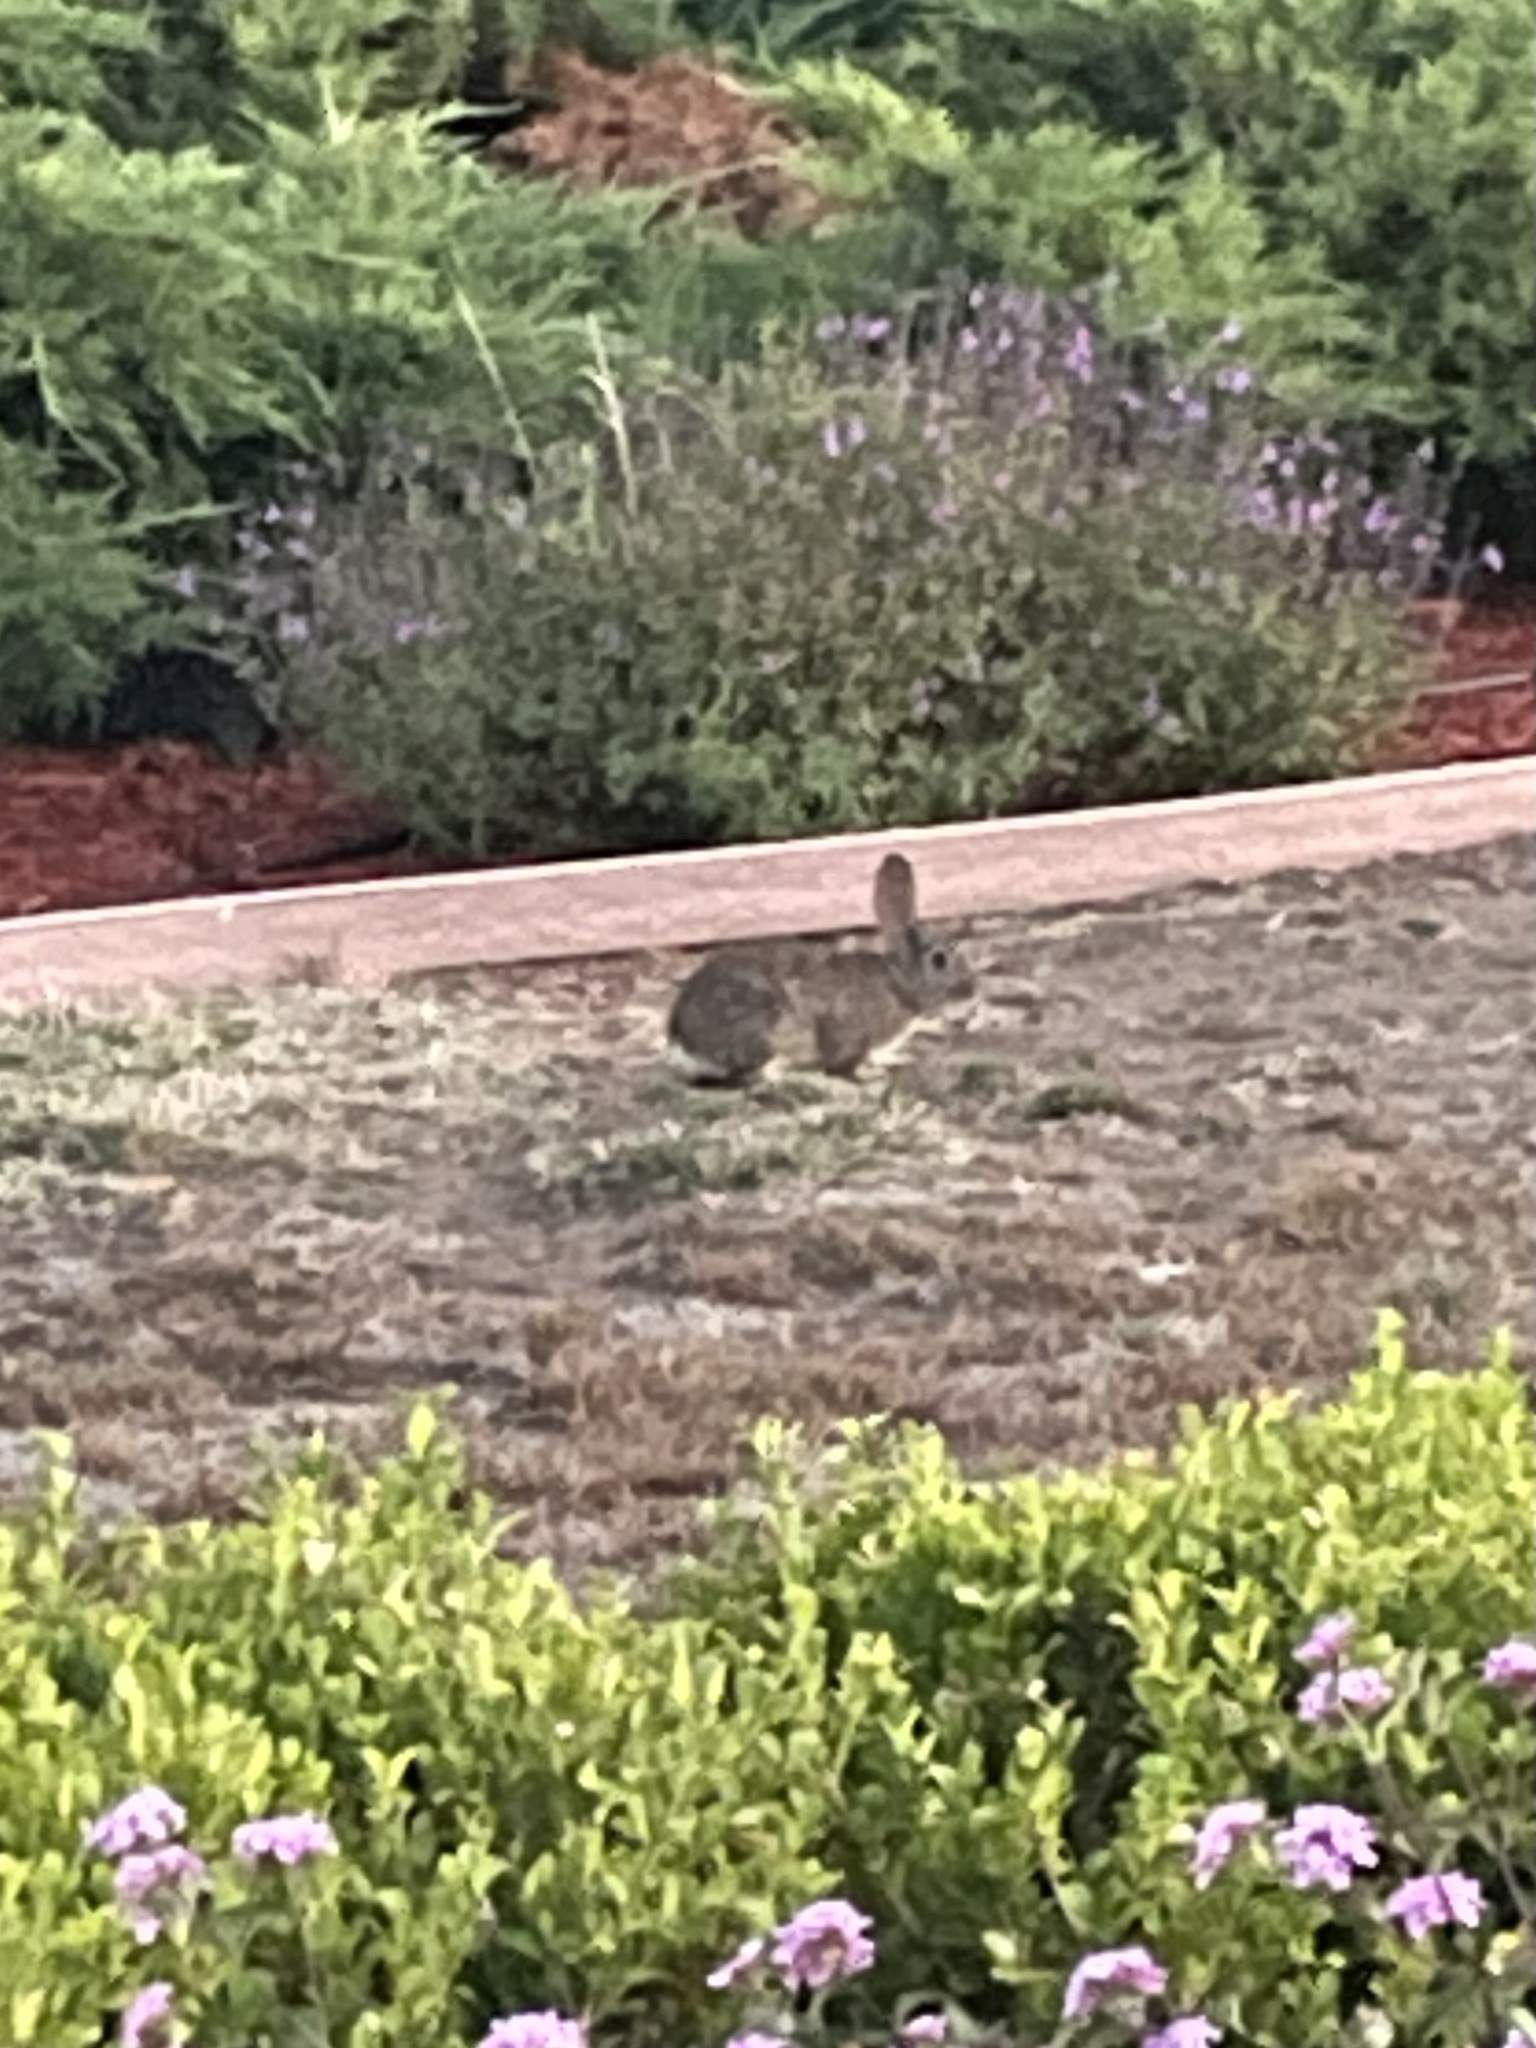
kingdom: Animalia
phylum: Chordata
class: Mammalia
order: Lagomorpha
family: Leporidae
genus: Sylvilagus
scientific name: Sylvilagus audubonii
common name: Desert cottontail
